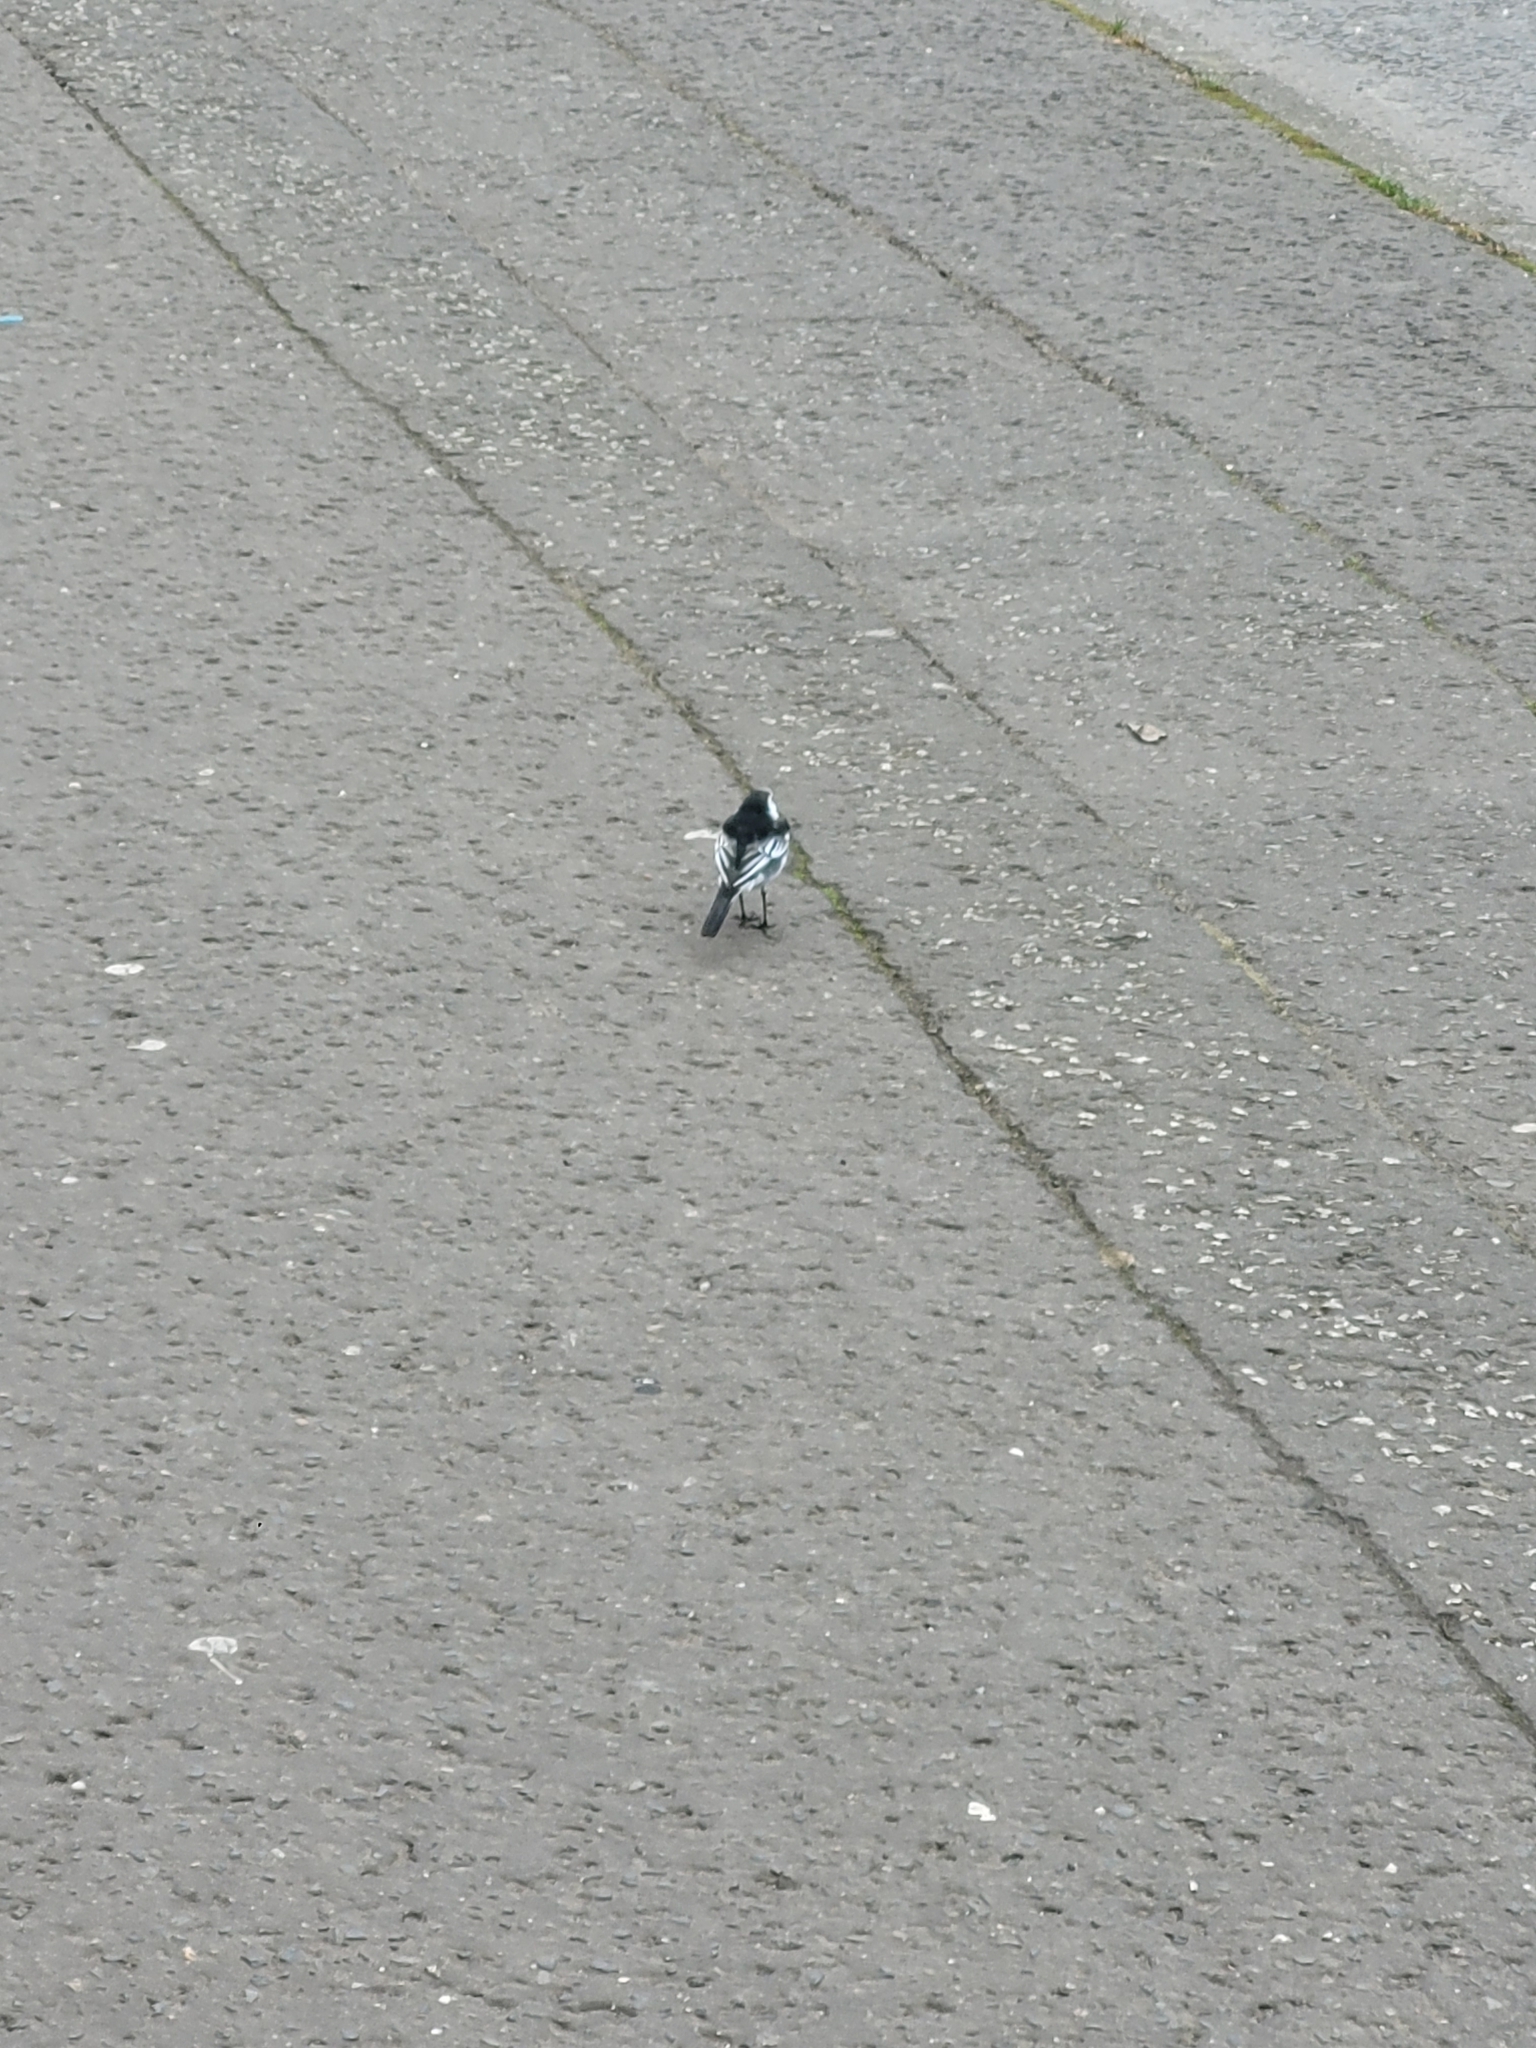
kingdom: Animalia
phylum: Chordata
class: Aves
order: Passeriformes
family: Motacillidae
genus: Motacilla
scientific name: Motacilla alba
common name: White wagtail
